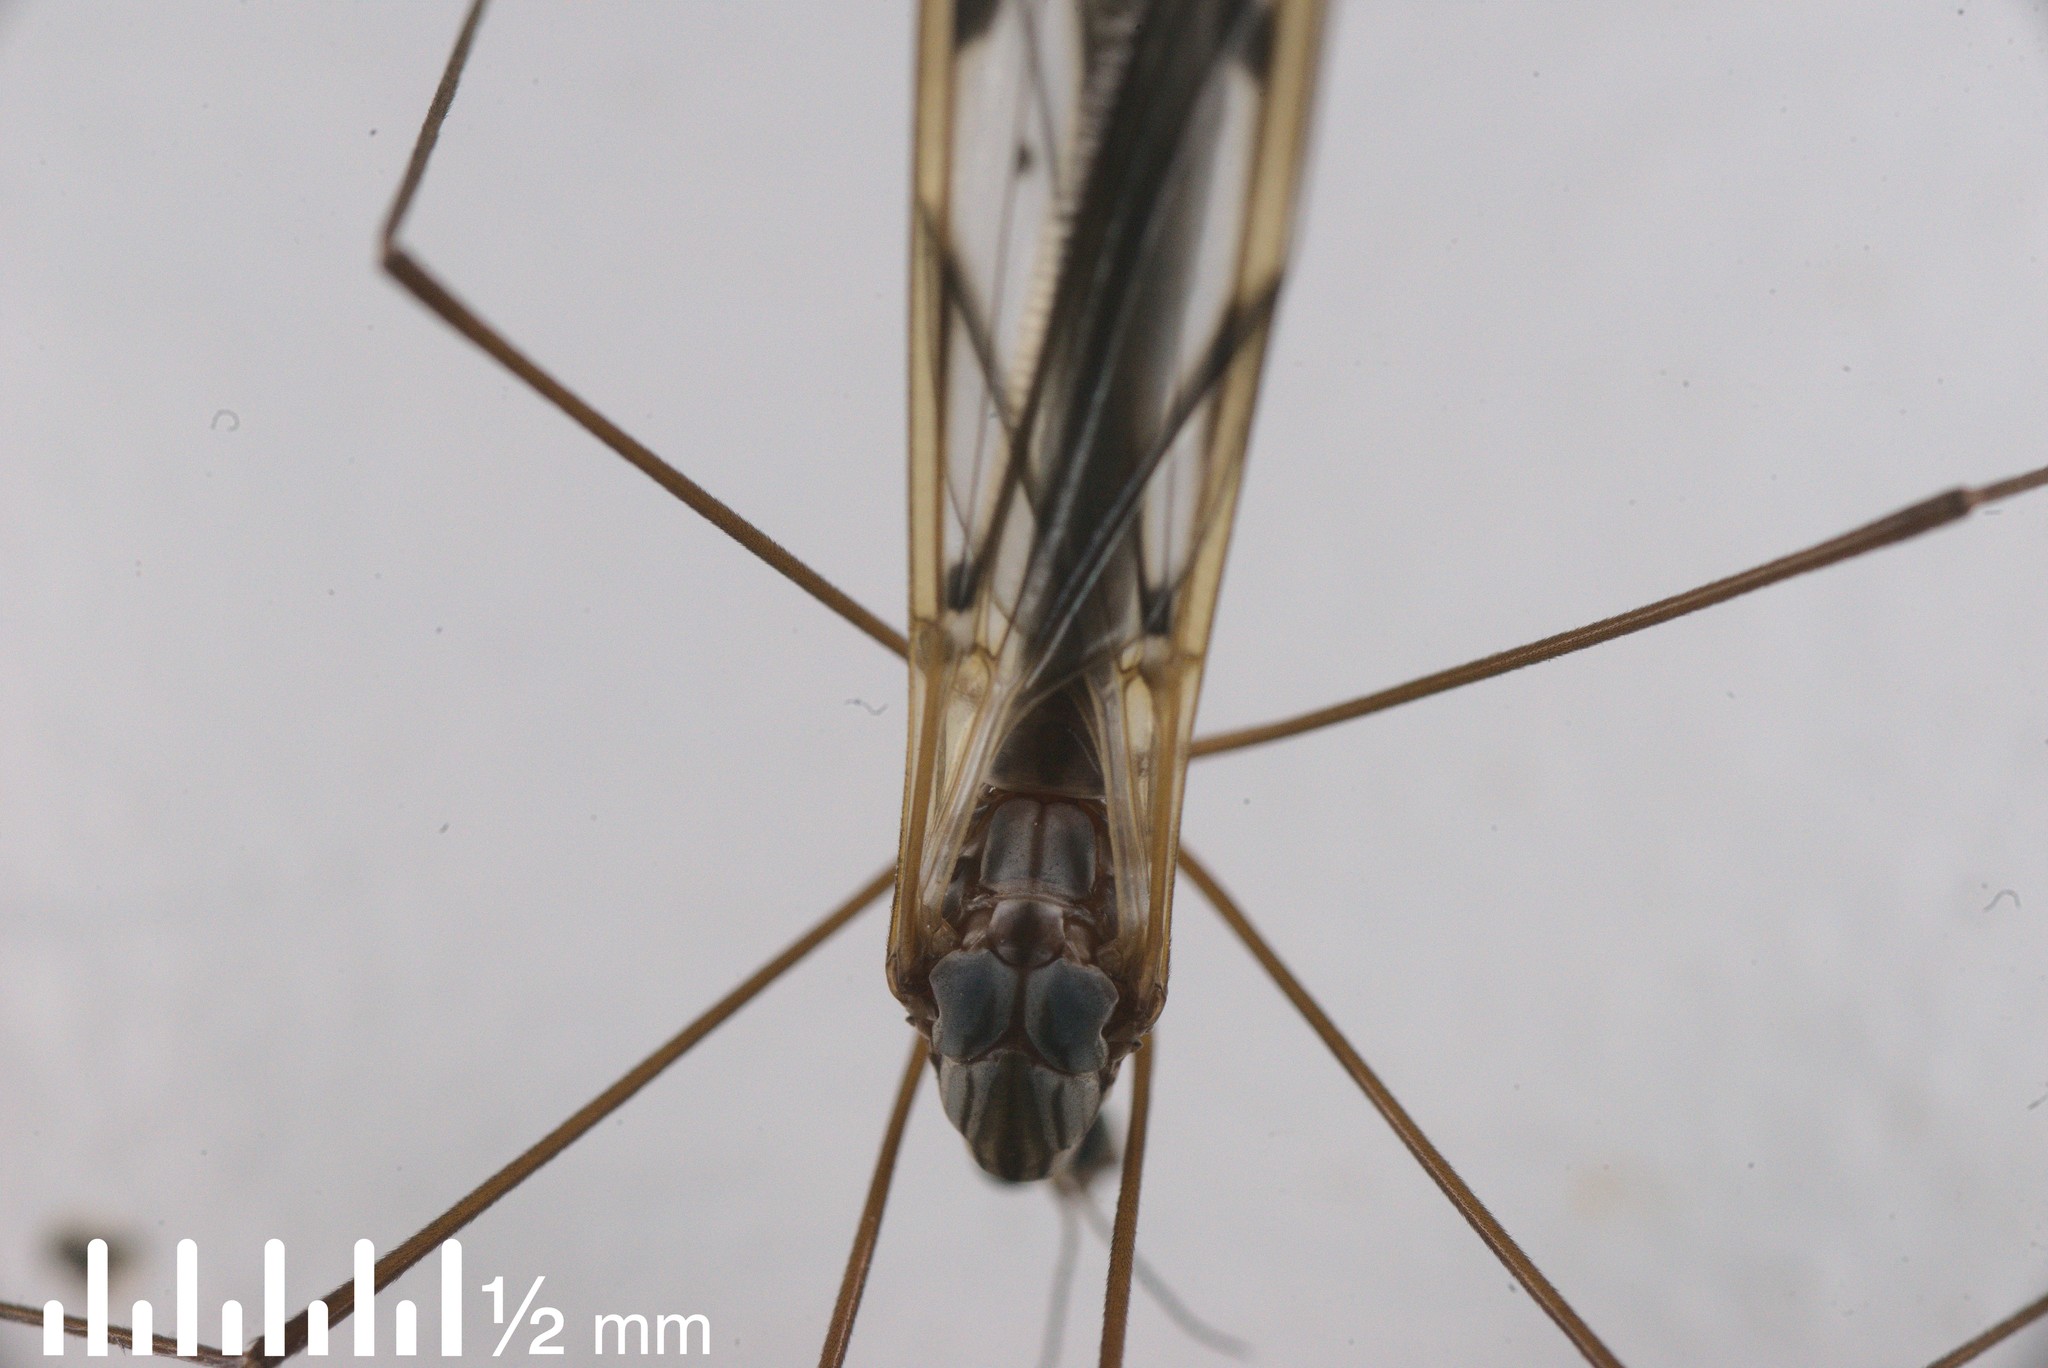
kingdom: Animalia
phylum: Arthropoda
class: Insecta
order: Diptera
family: Tipulidae
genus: Zelandotipula
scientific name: Zelandotipula novarae
